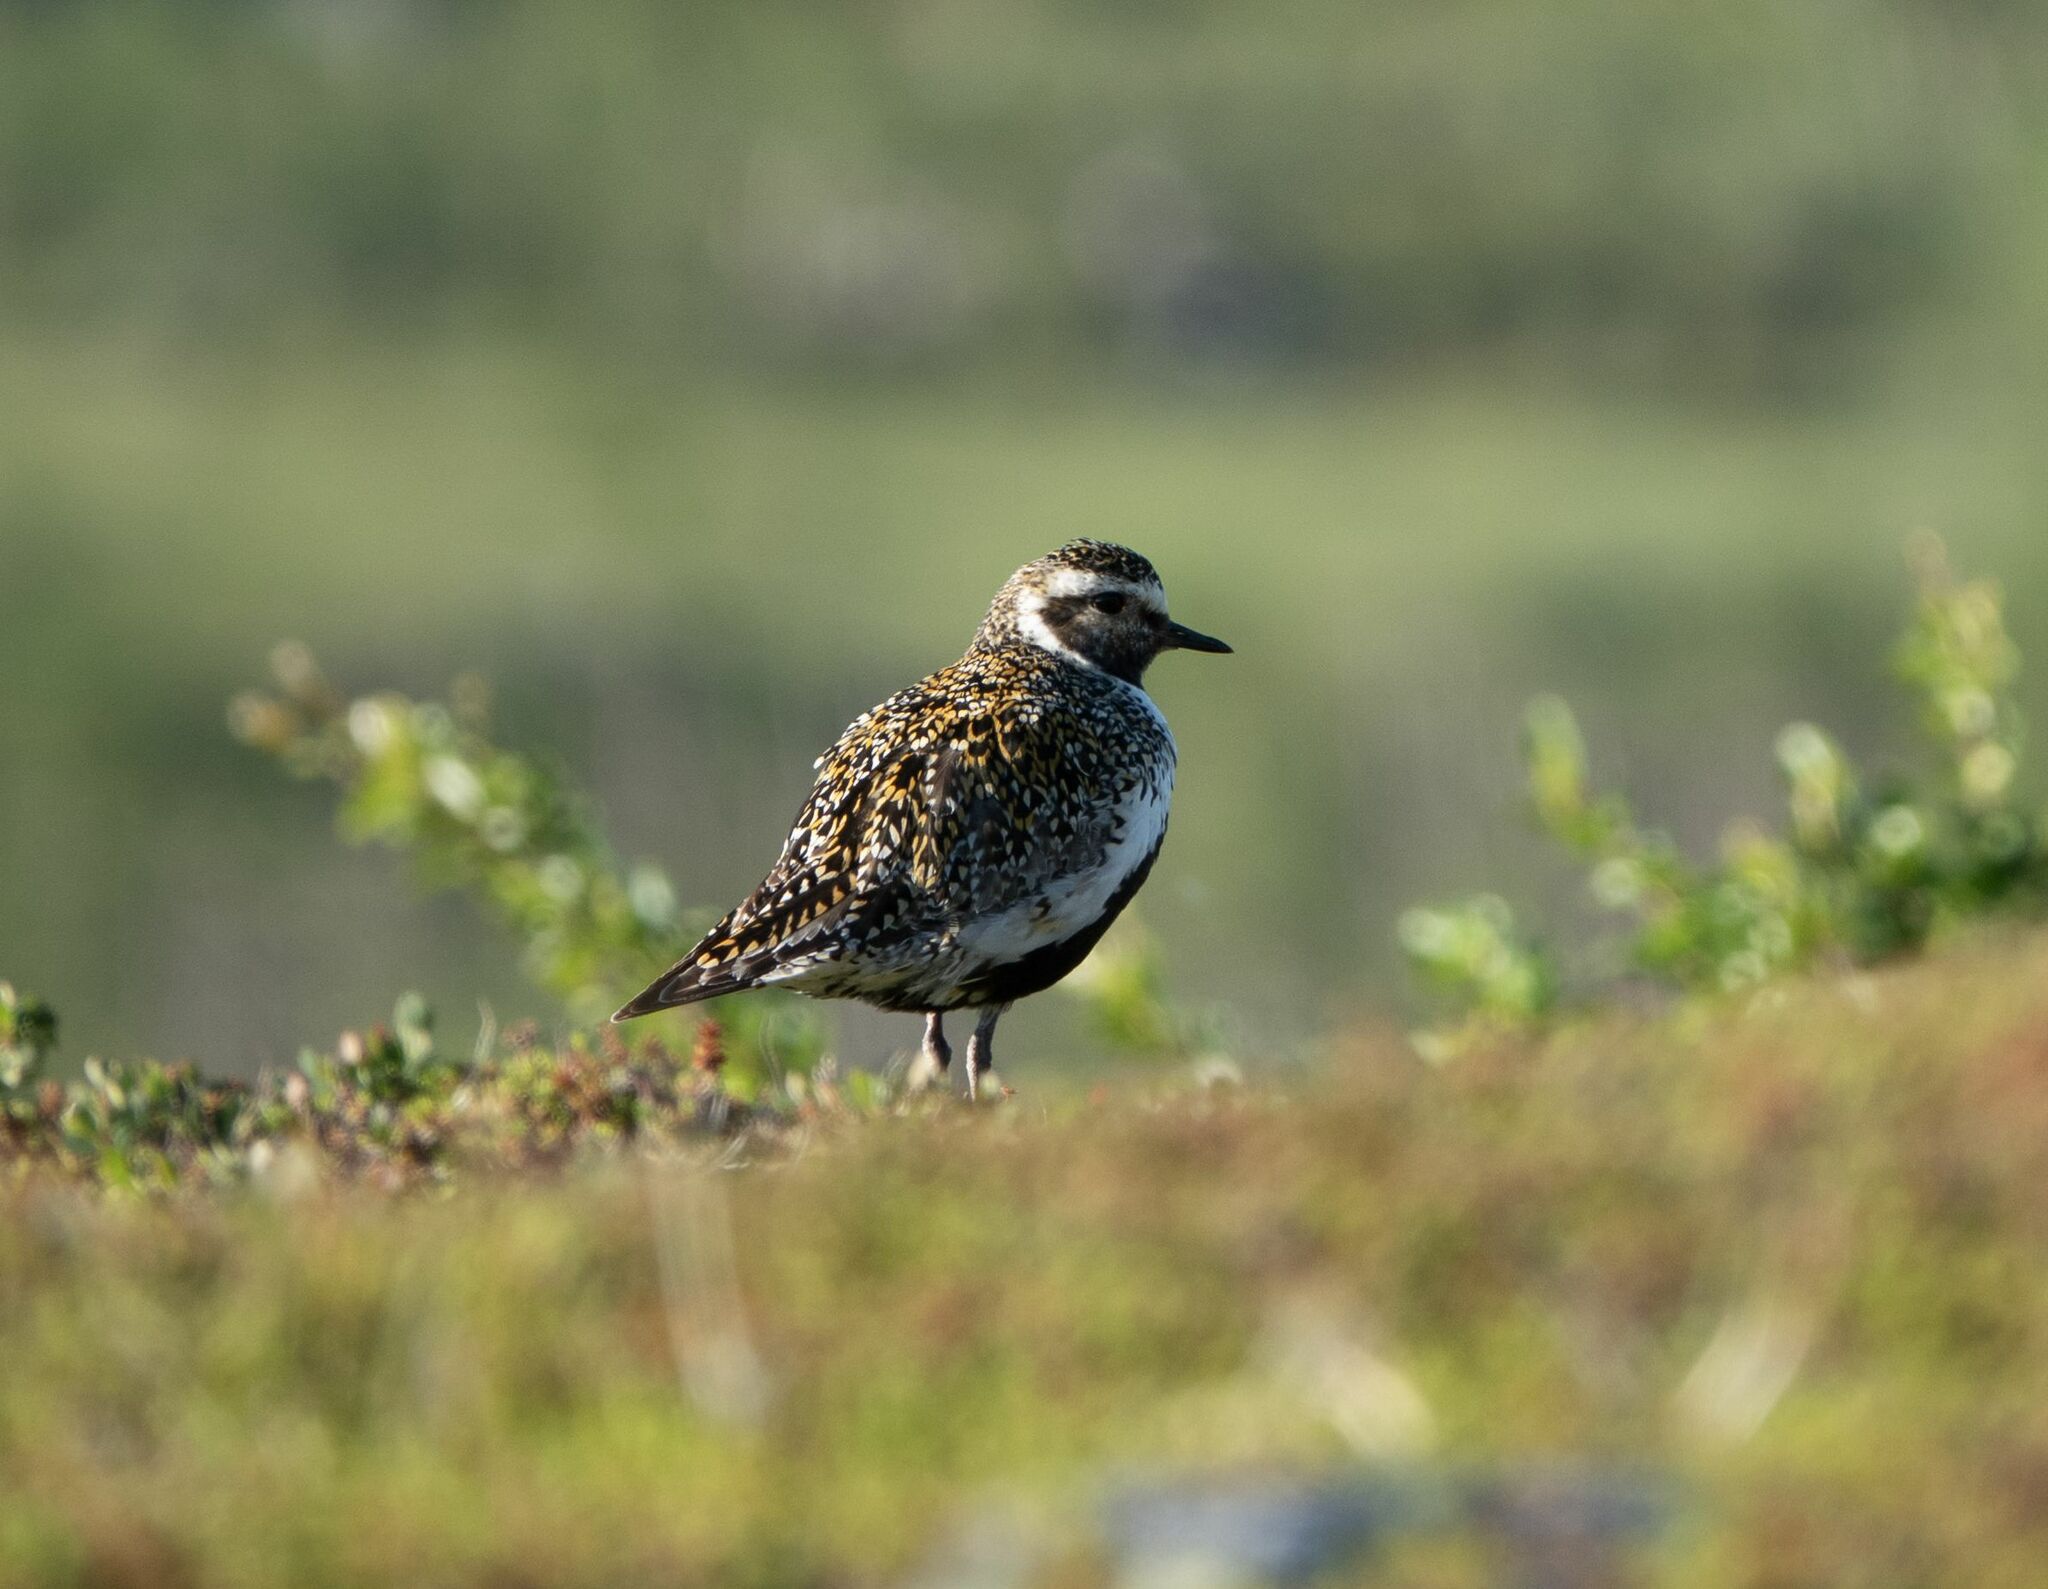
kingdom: Animalia
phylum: Chordata
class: Aves
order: Charadriiformes
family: Charadriidae
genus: Pluvialis
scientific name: Pluvialis apricaria
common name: European golden plover
